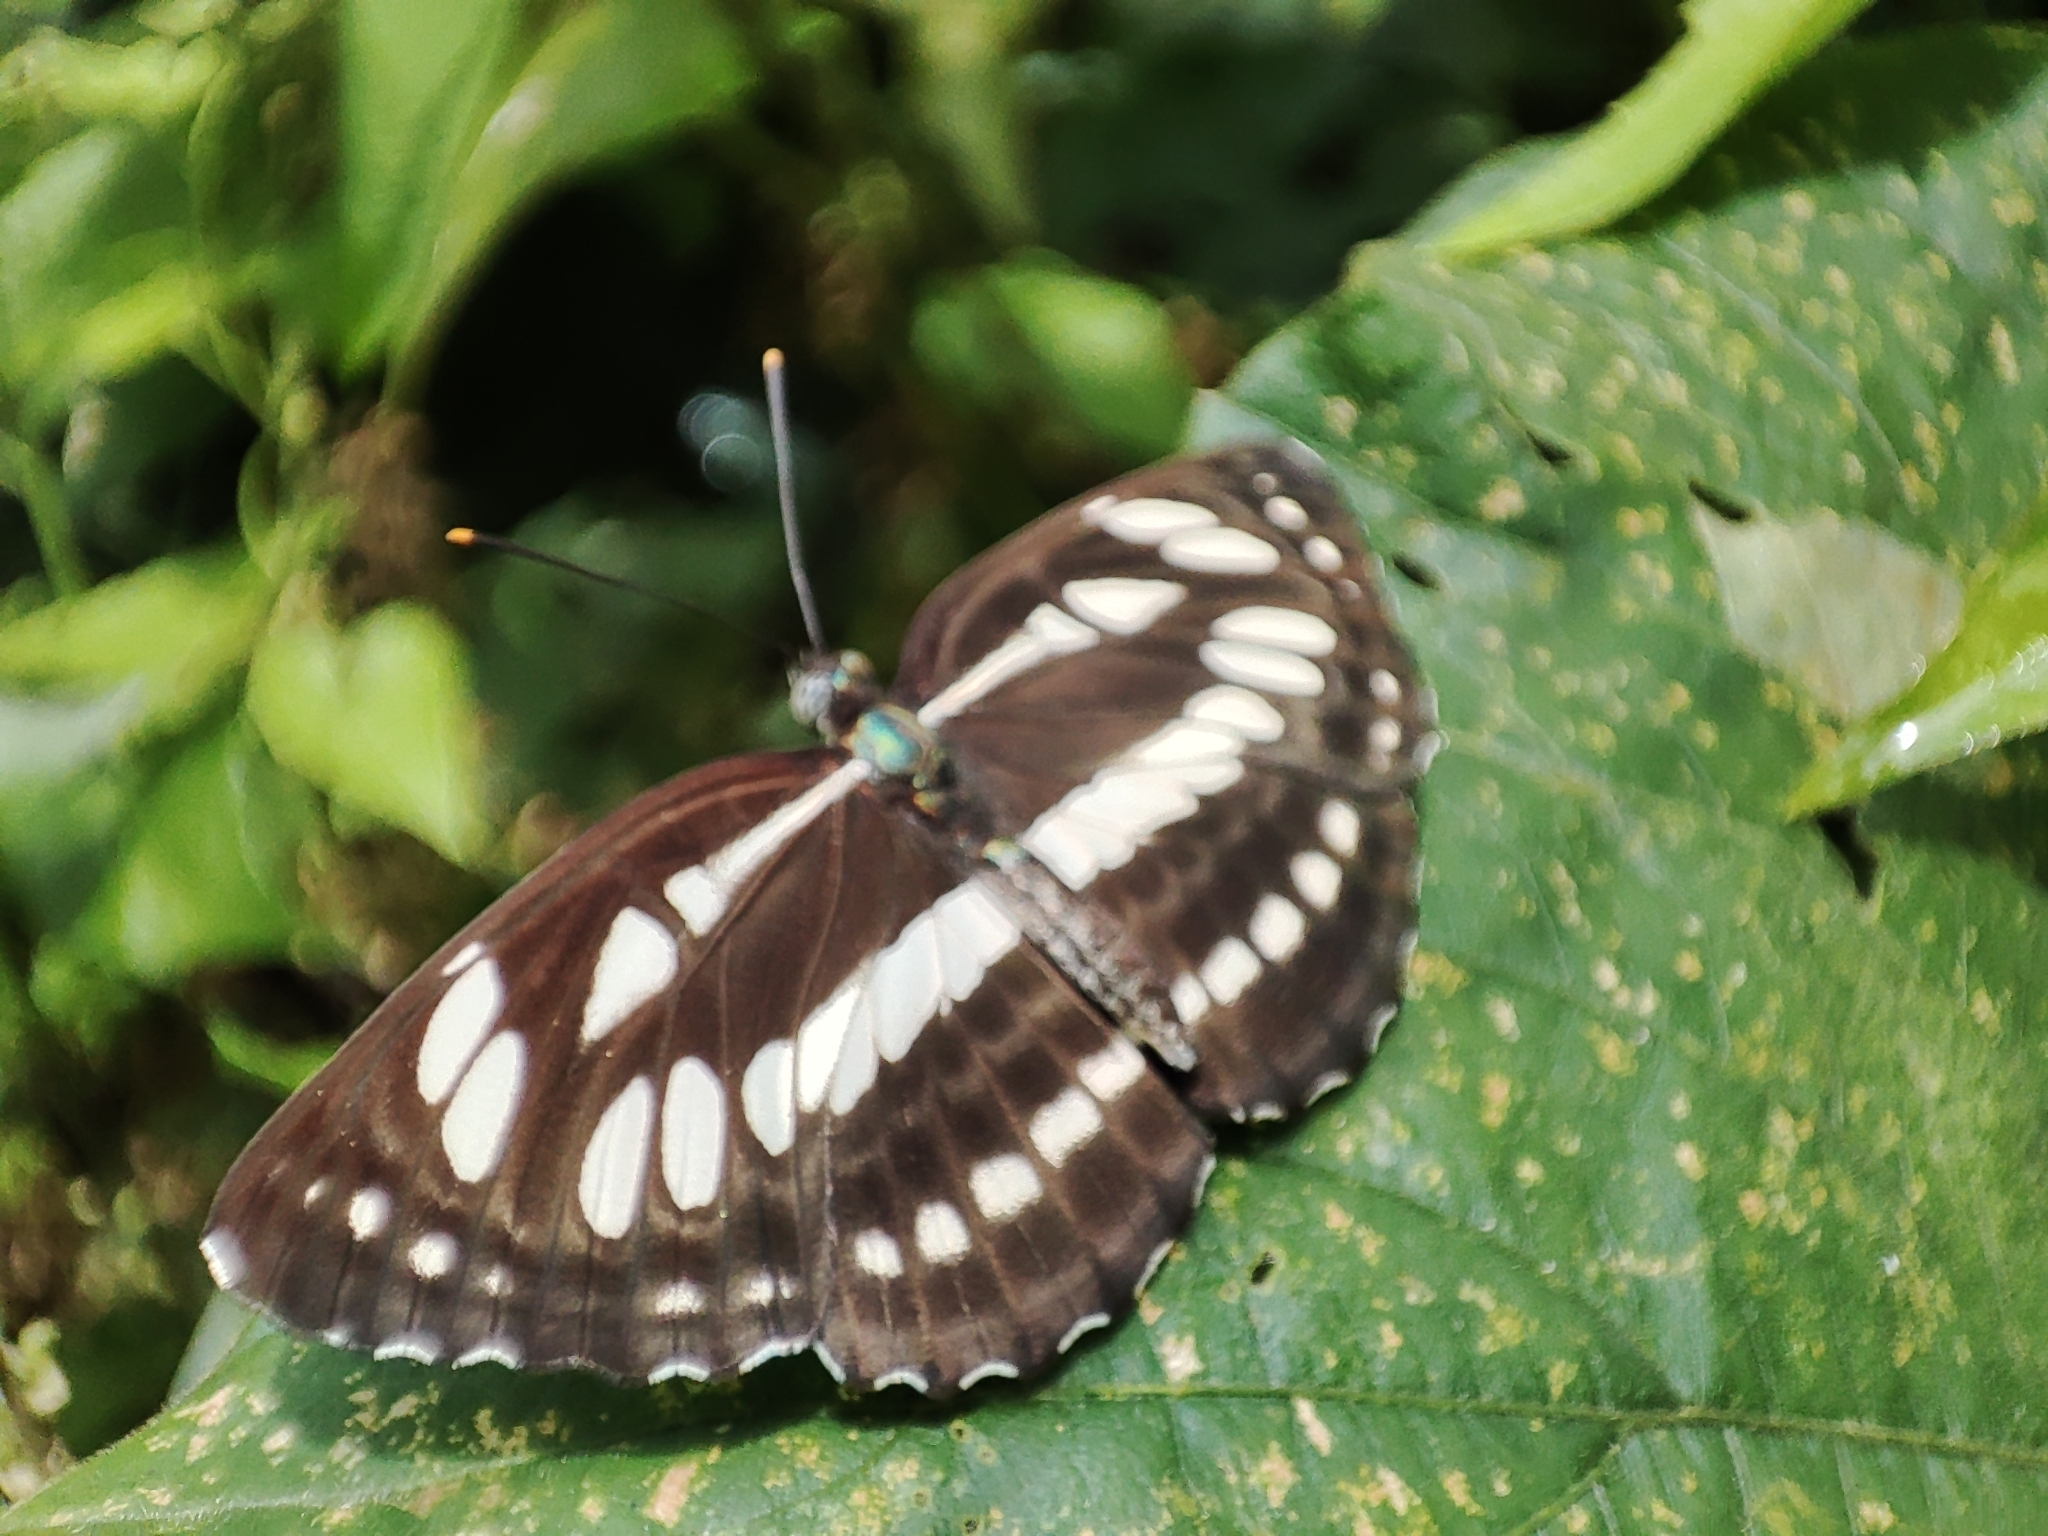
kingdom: Animalia
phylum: Arthropoda
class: Insecta
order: Lepidoptera
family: Nymphalidae
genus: Neptis
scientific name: Neptis hylas
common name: Common sailer
